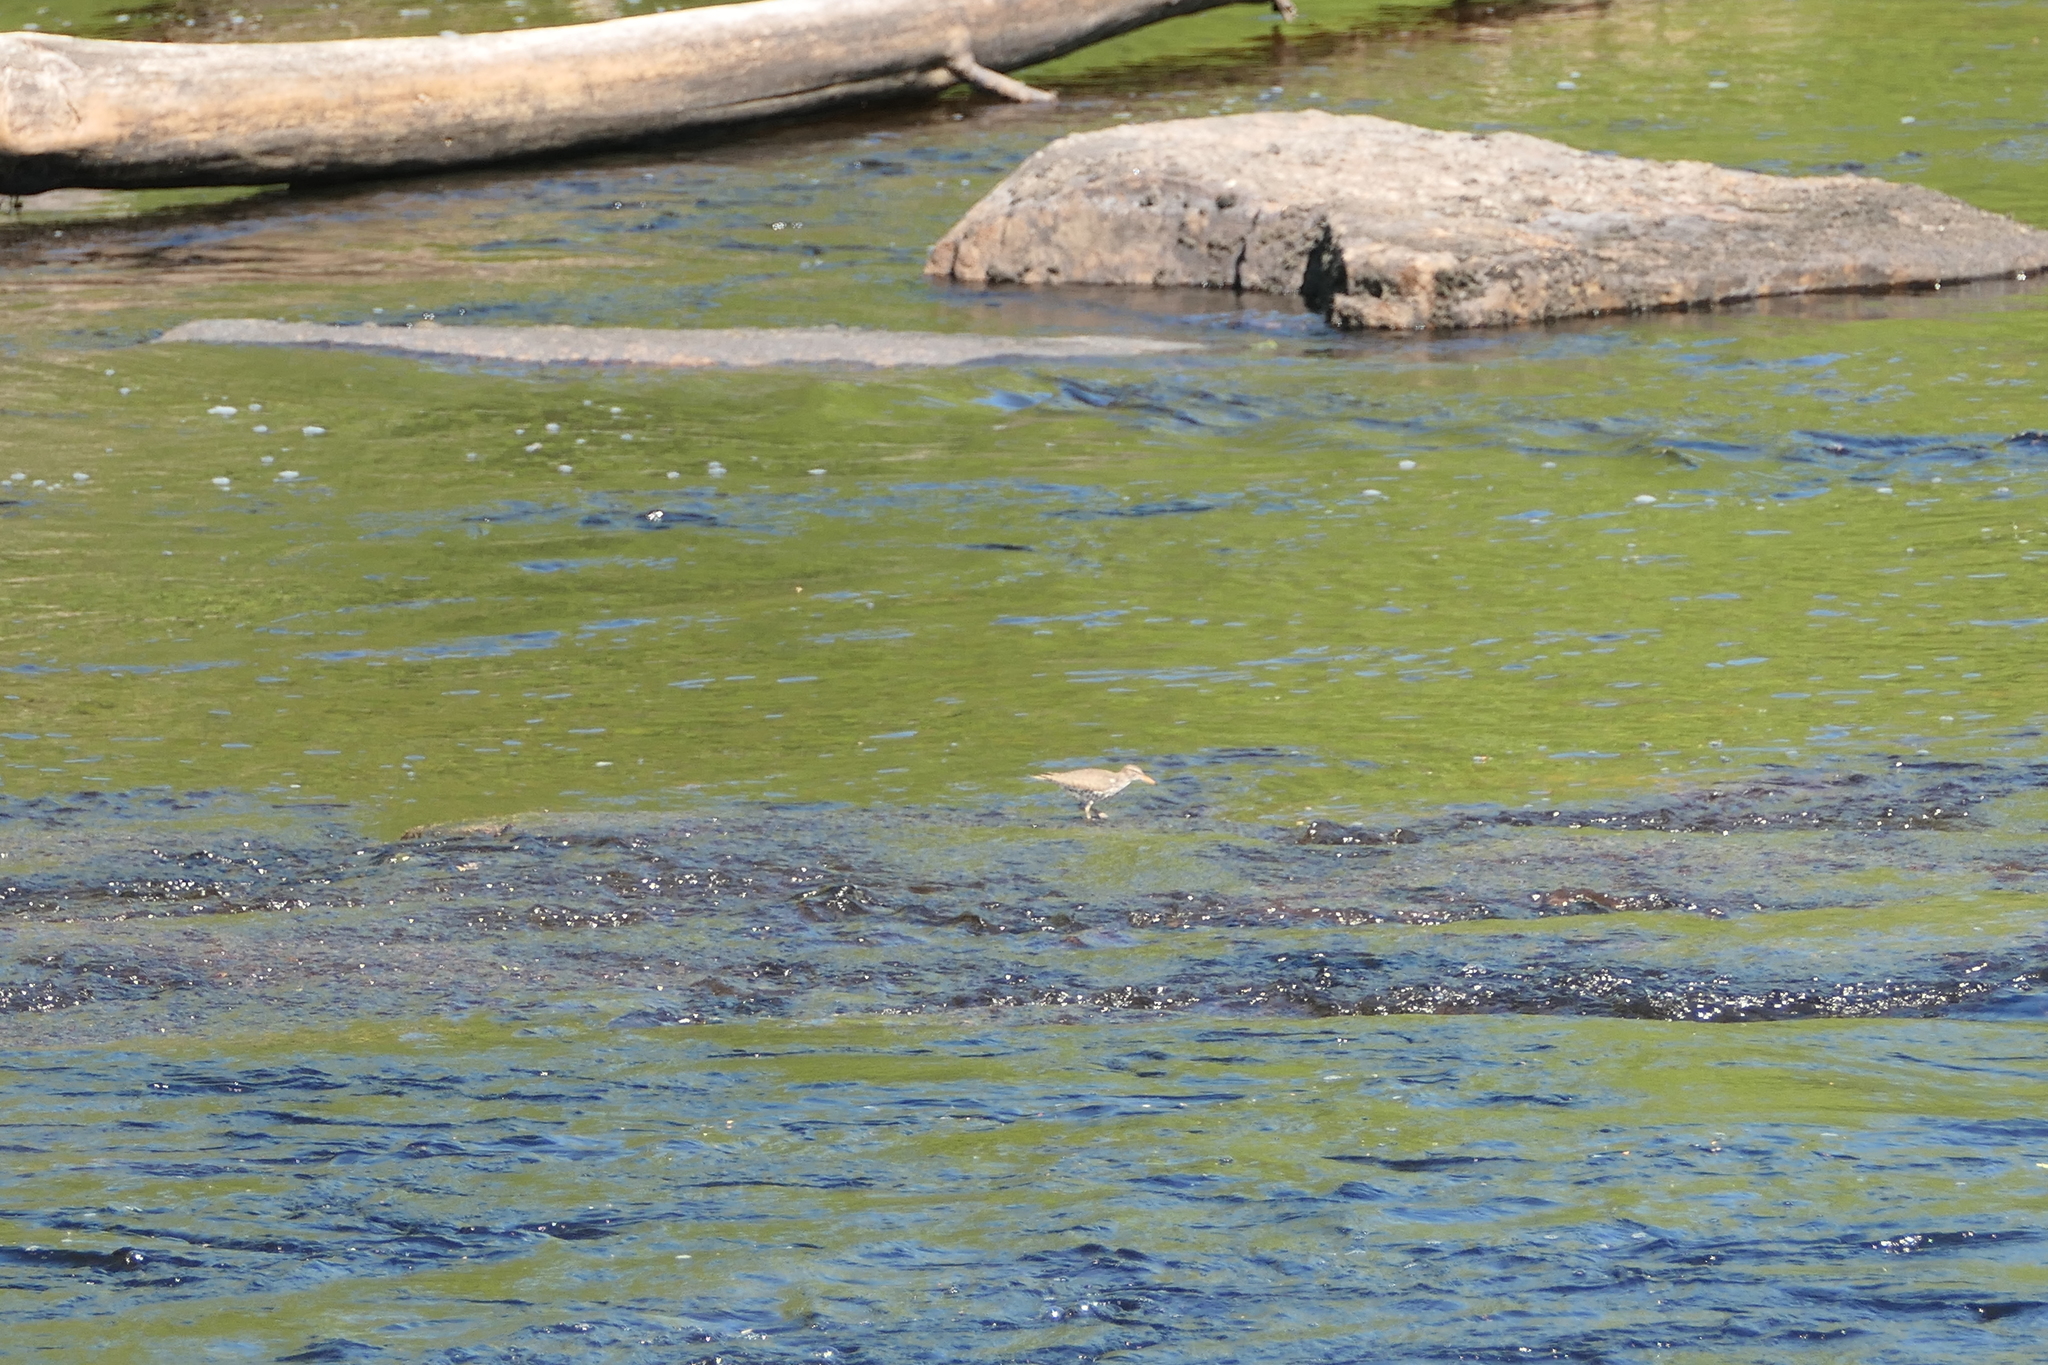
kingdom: Animalia
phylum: Chordata
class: Aves
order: Charadriiformes
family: Scolopacidae
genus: Actitis
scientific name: Actitis macularius
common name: Spotted sandpiper
